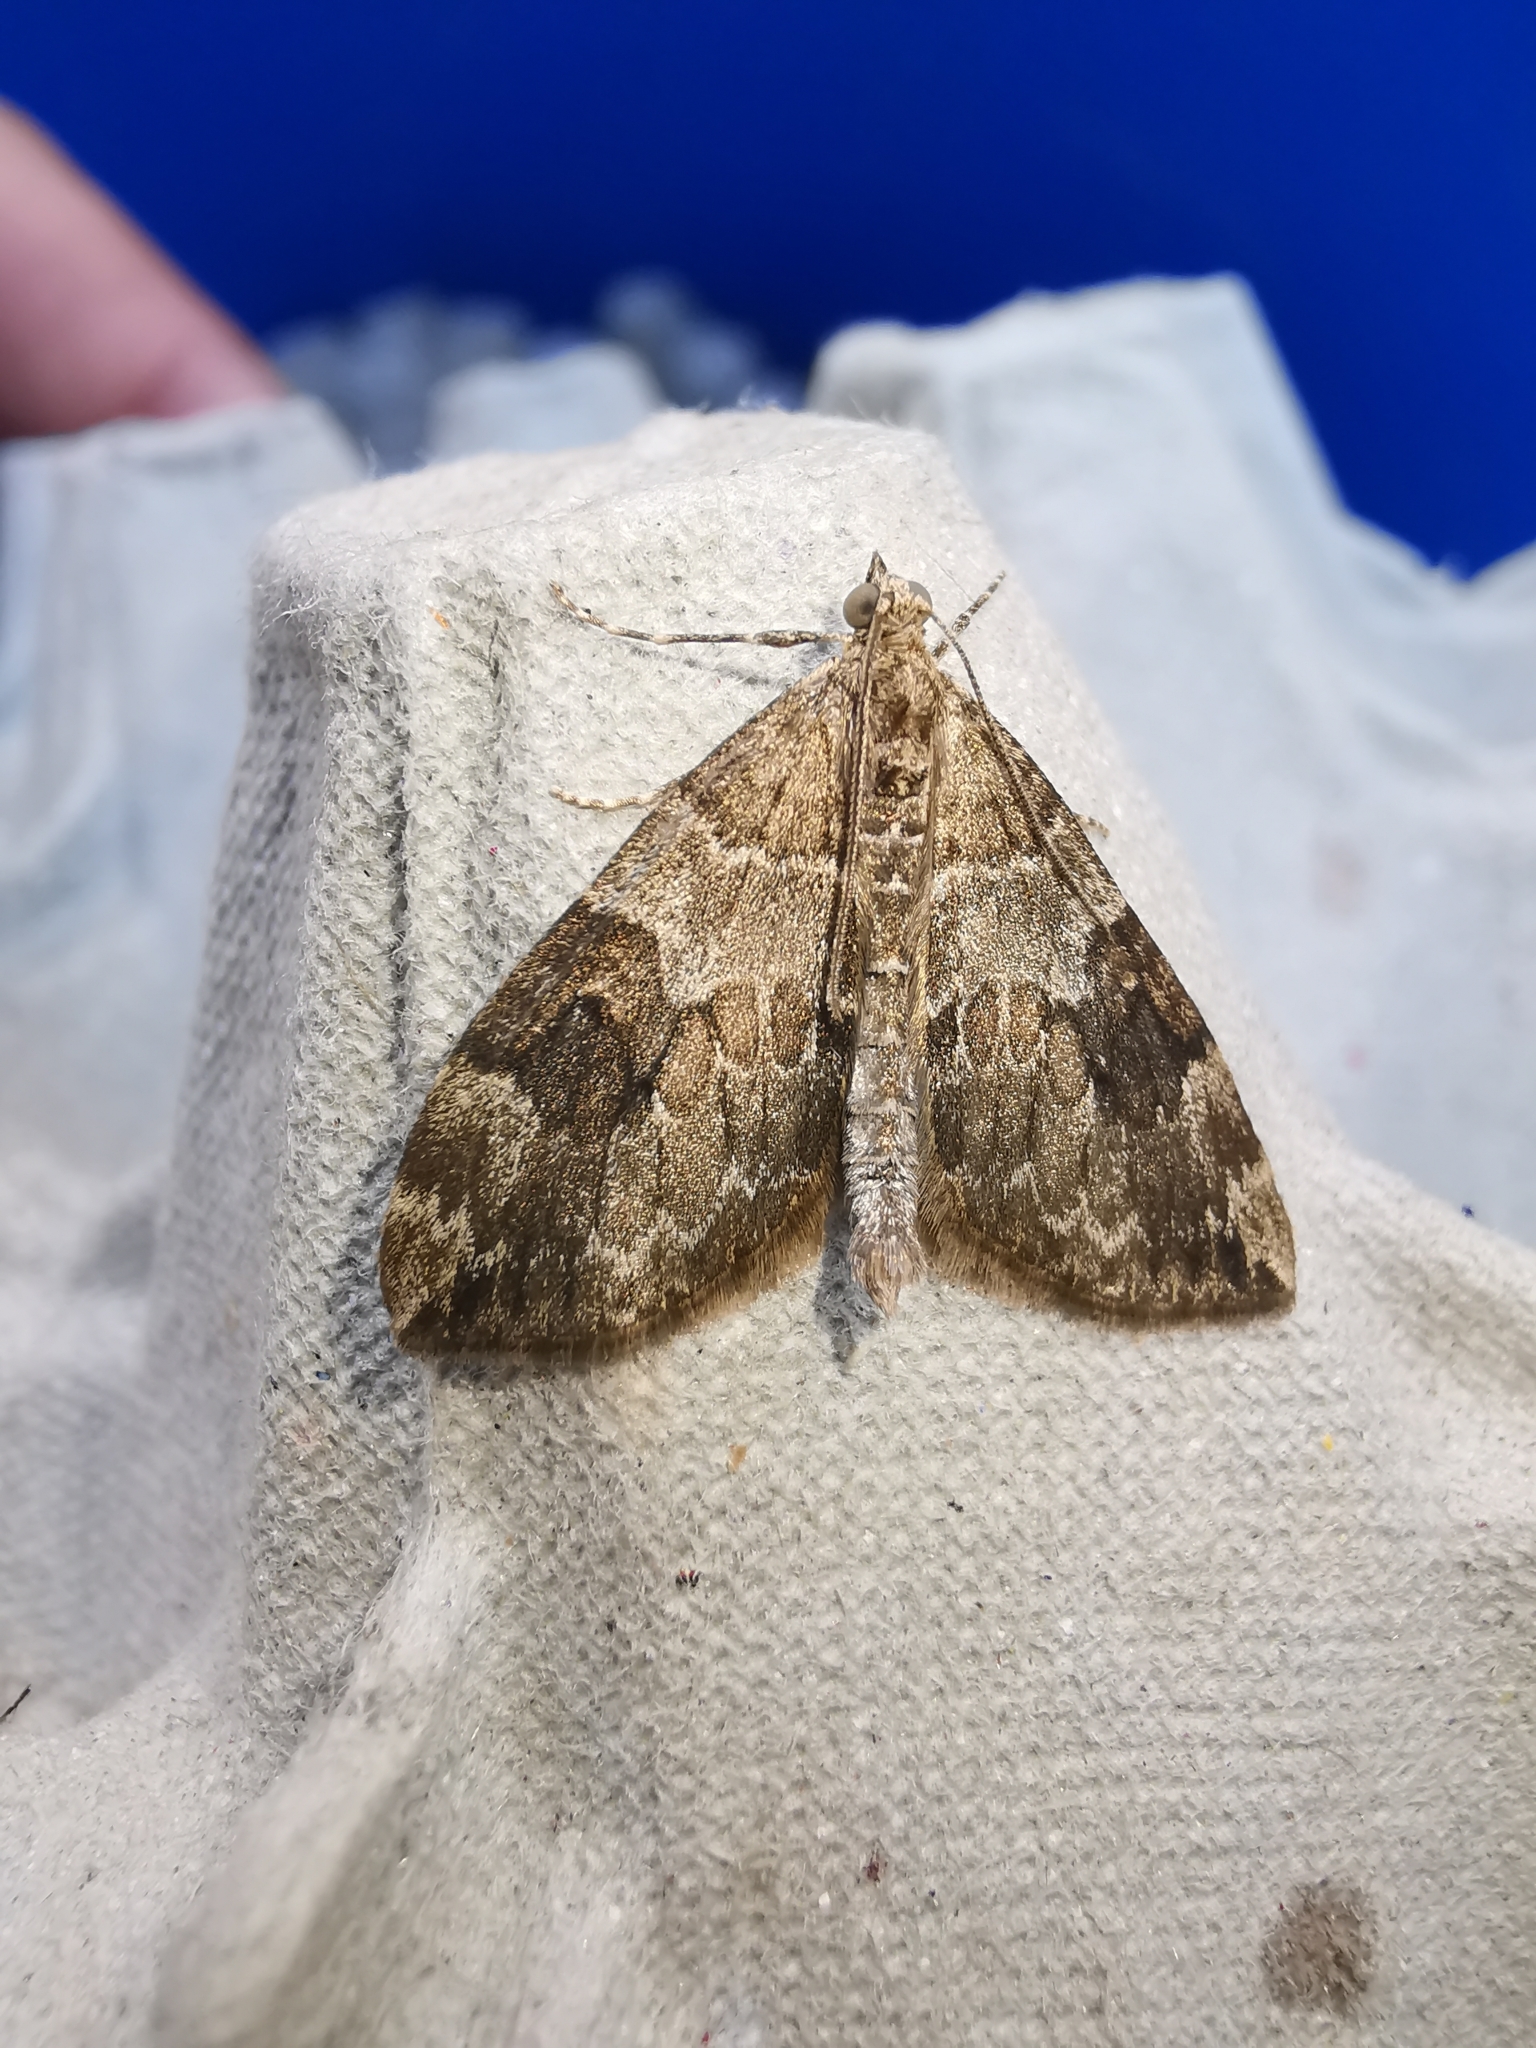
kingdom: Animalia
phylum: Arthropoda
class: Insecta
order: Lepidoptera
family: Geometridae
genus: Thera
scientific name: Thera britannica
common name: Spruce carpet
